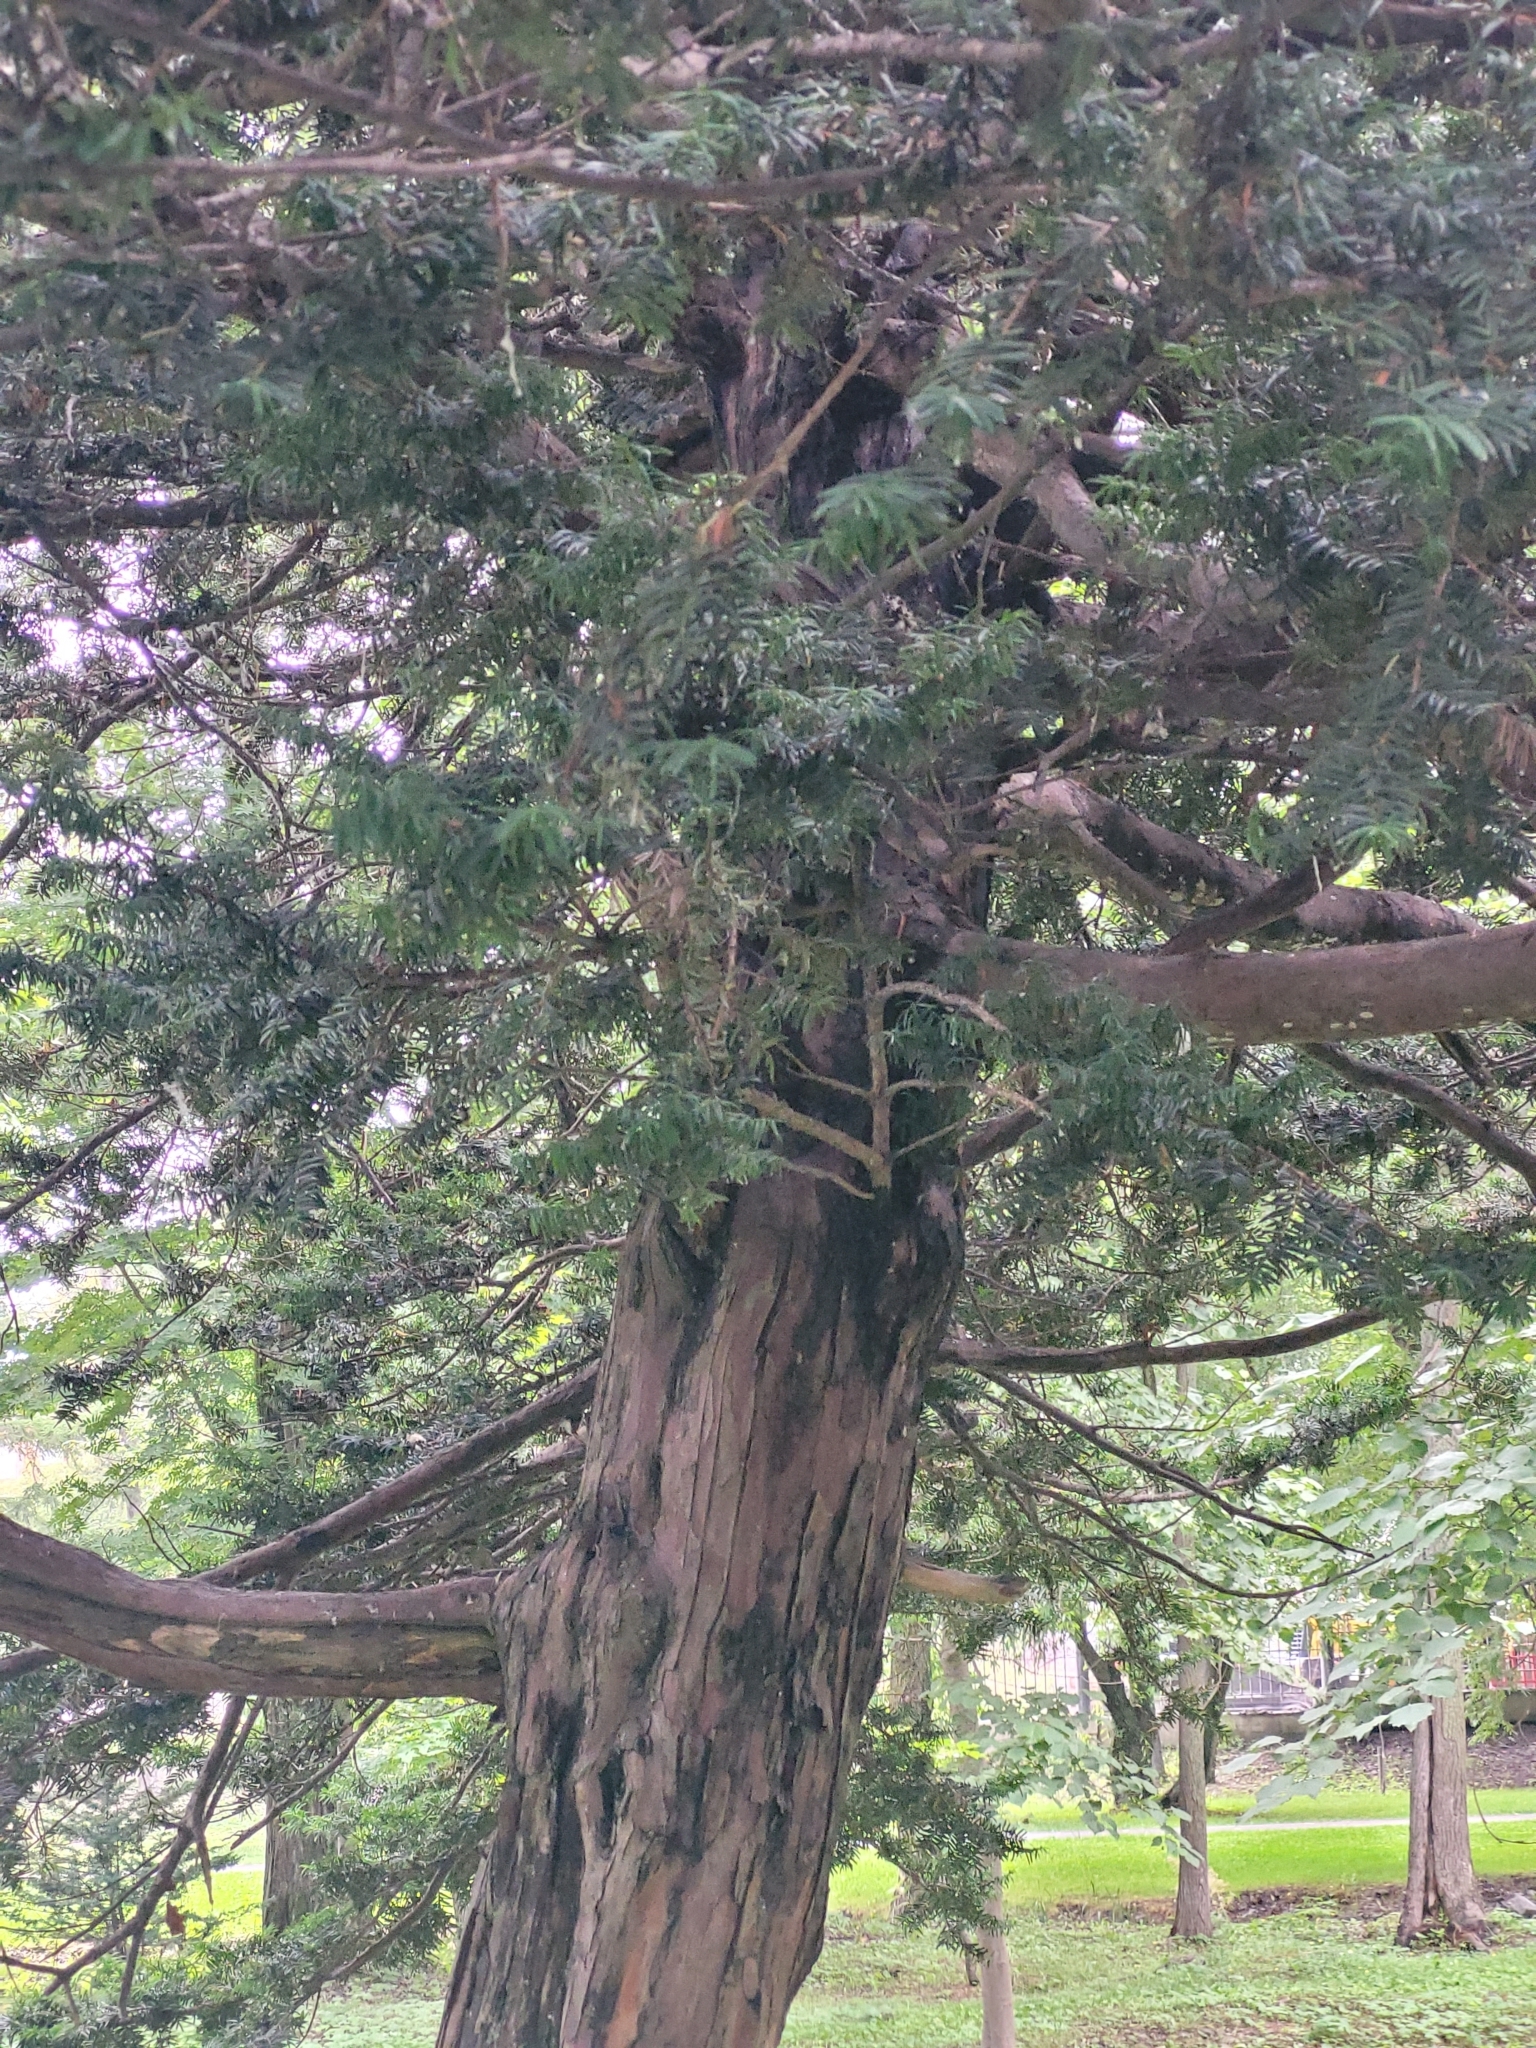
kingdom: Plantae
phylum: Tracheophyta
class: Pinopsida
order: Pinales
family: Taxaceae
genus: Taxus
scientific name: Taxus cuspidata
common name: Japanese yew
